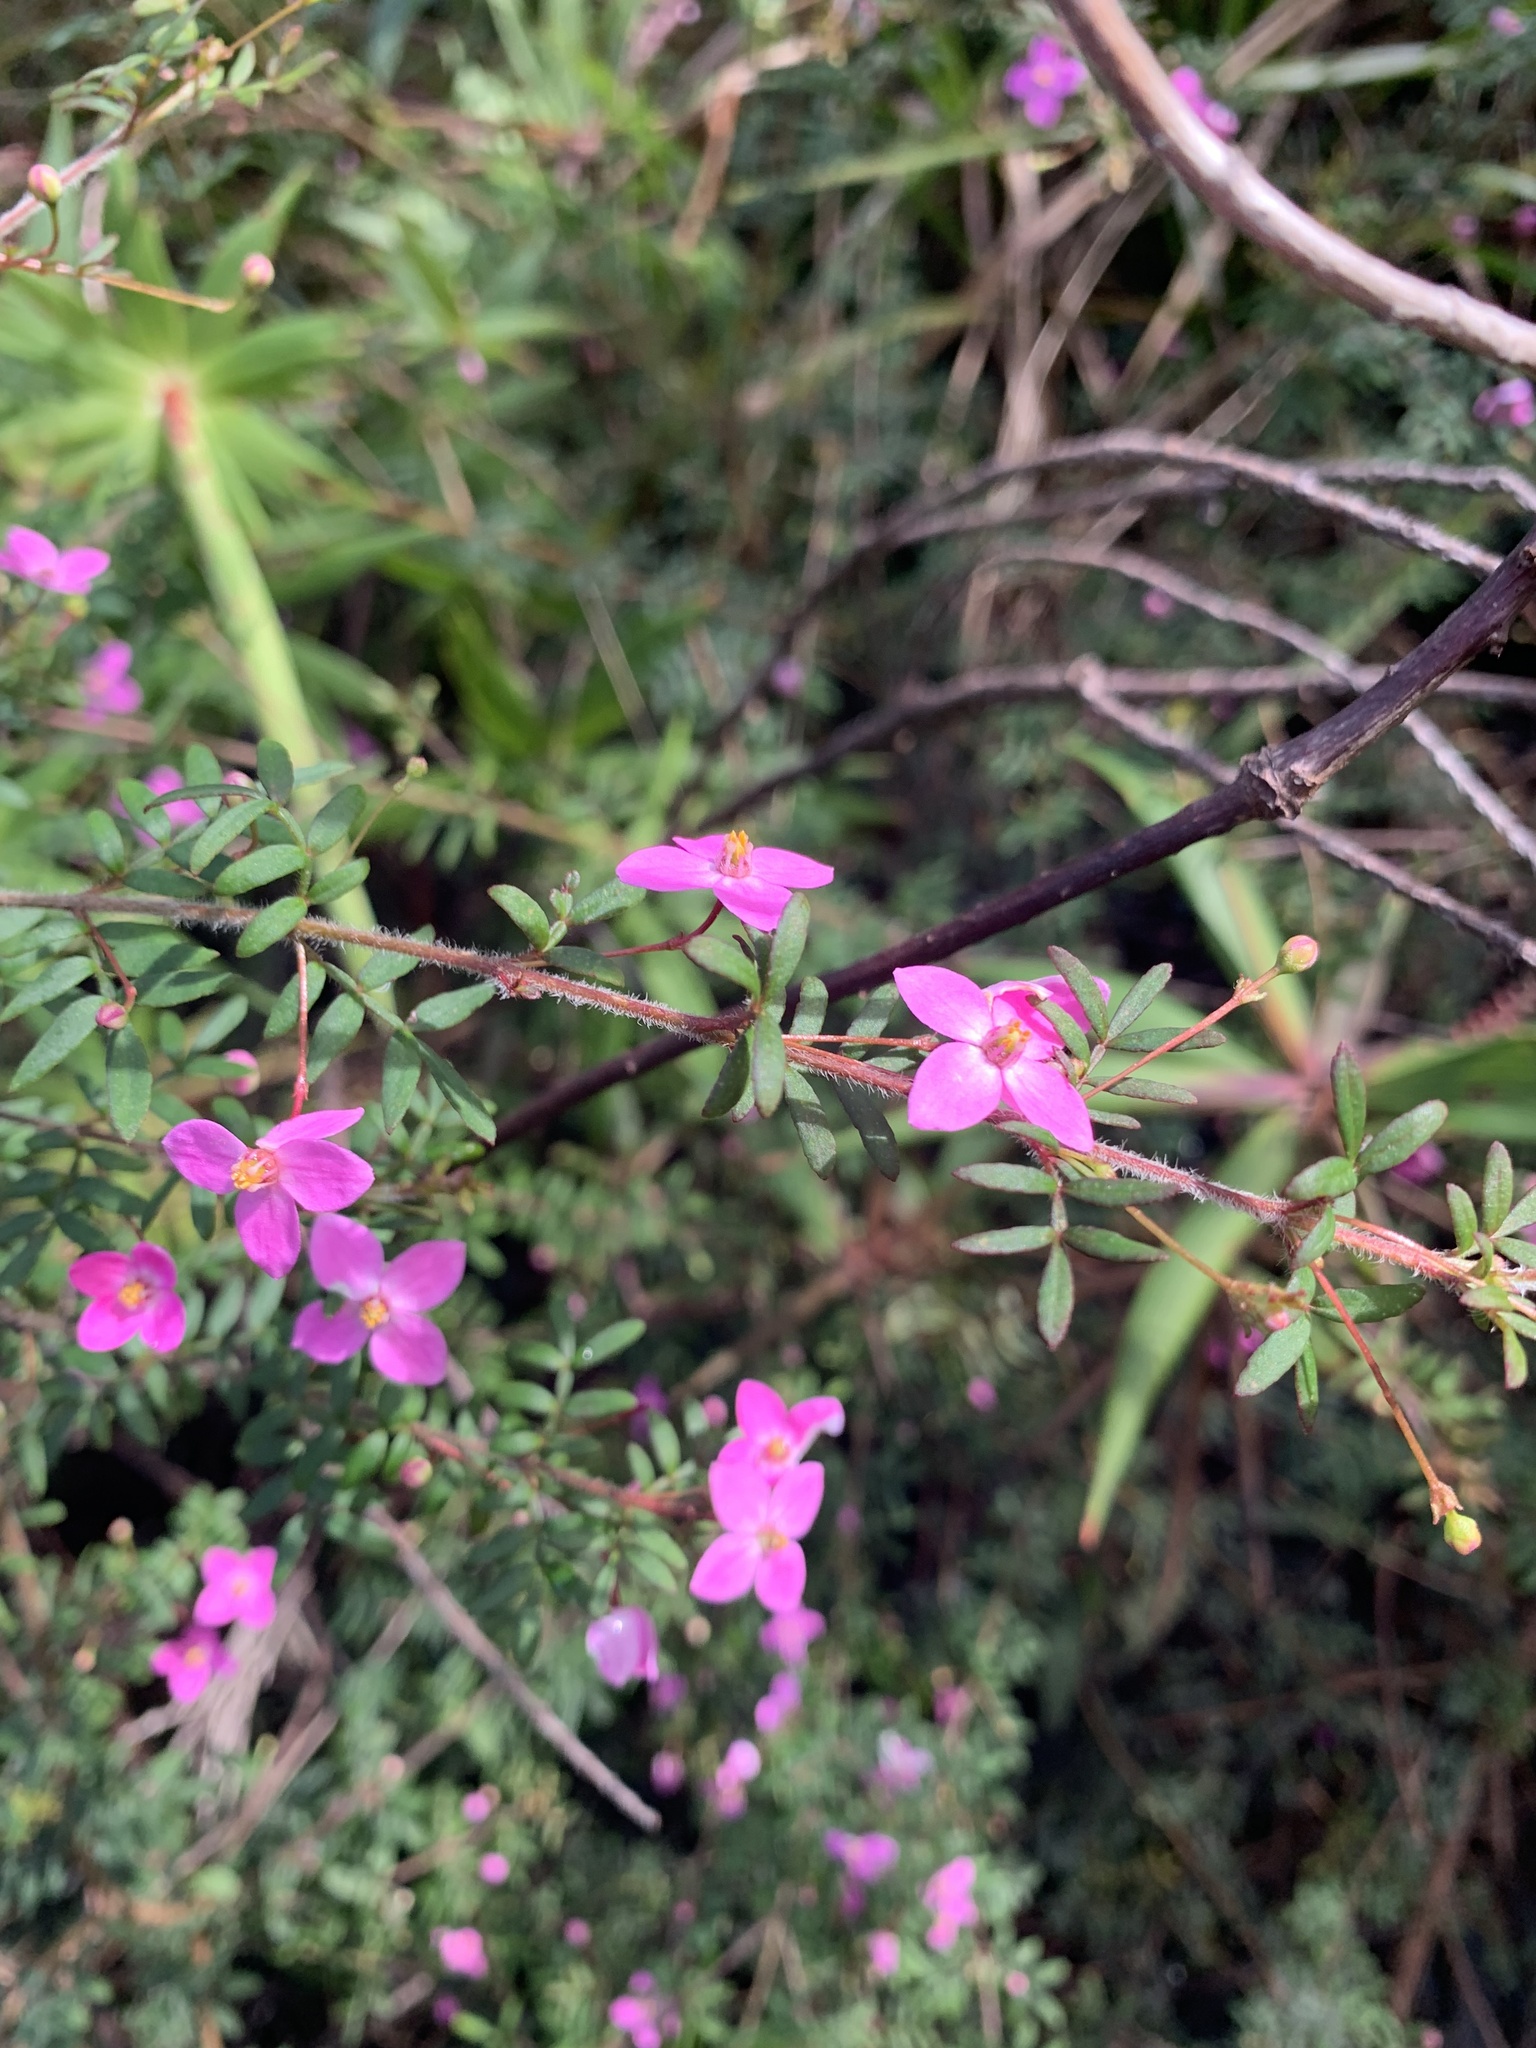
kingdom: Plantae
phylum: Tracheophyta
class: Magnoliopsida
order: Sapindales
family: Rutaceae
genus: Boronia
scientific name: Boronia gracilipes
